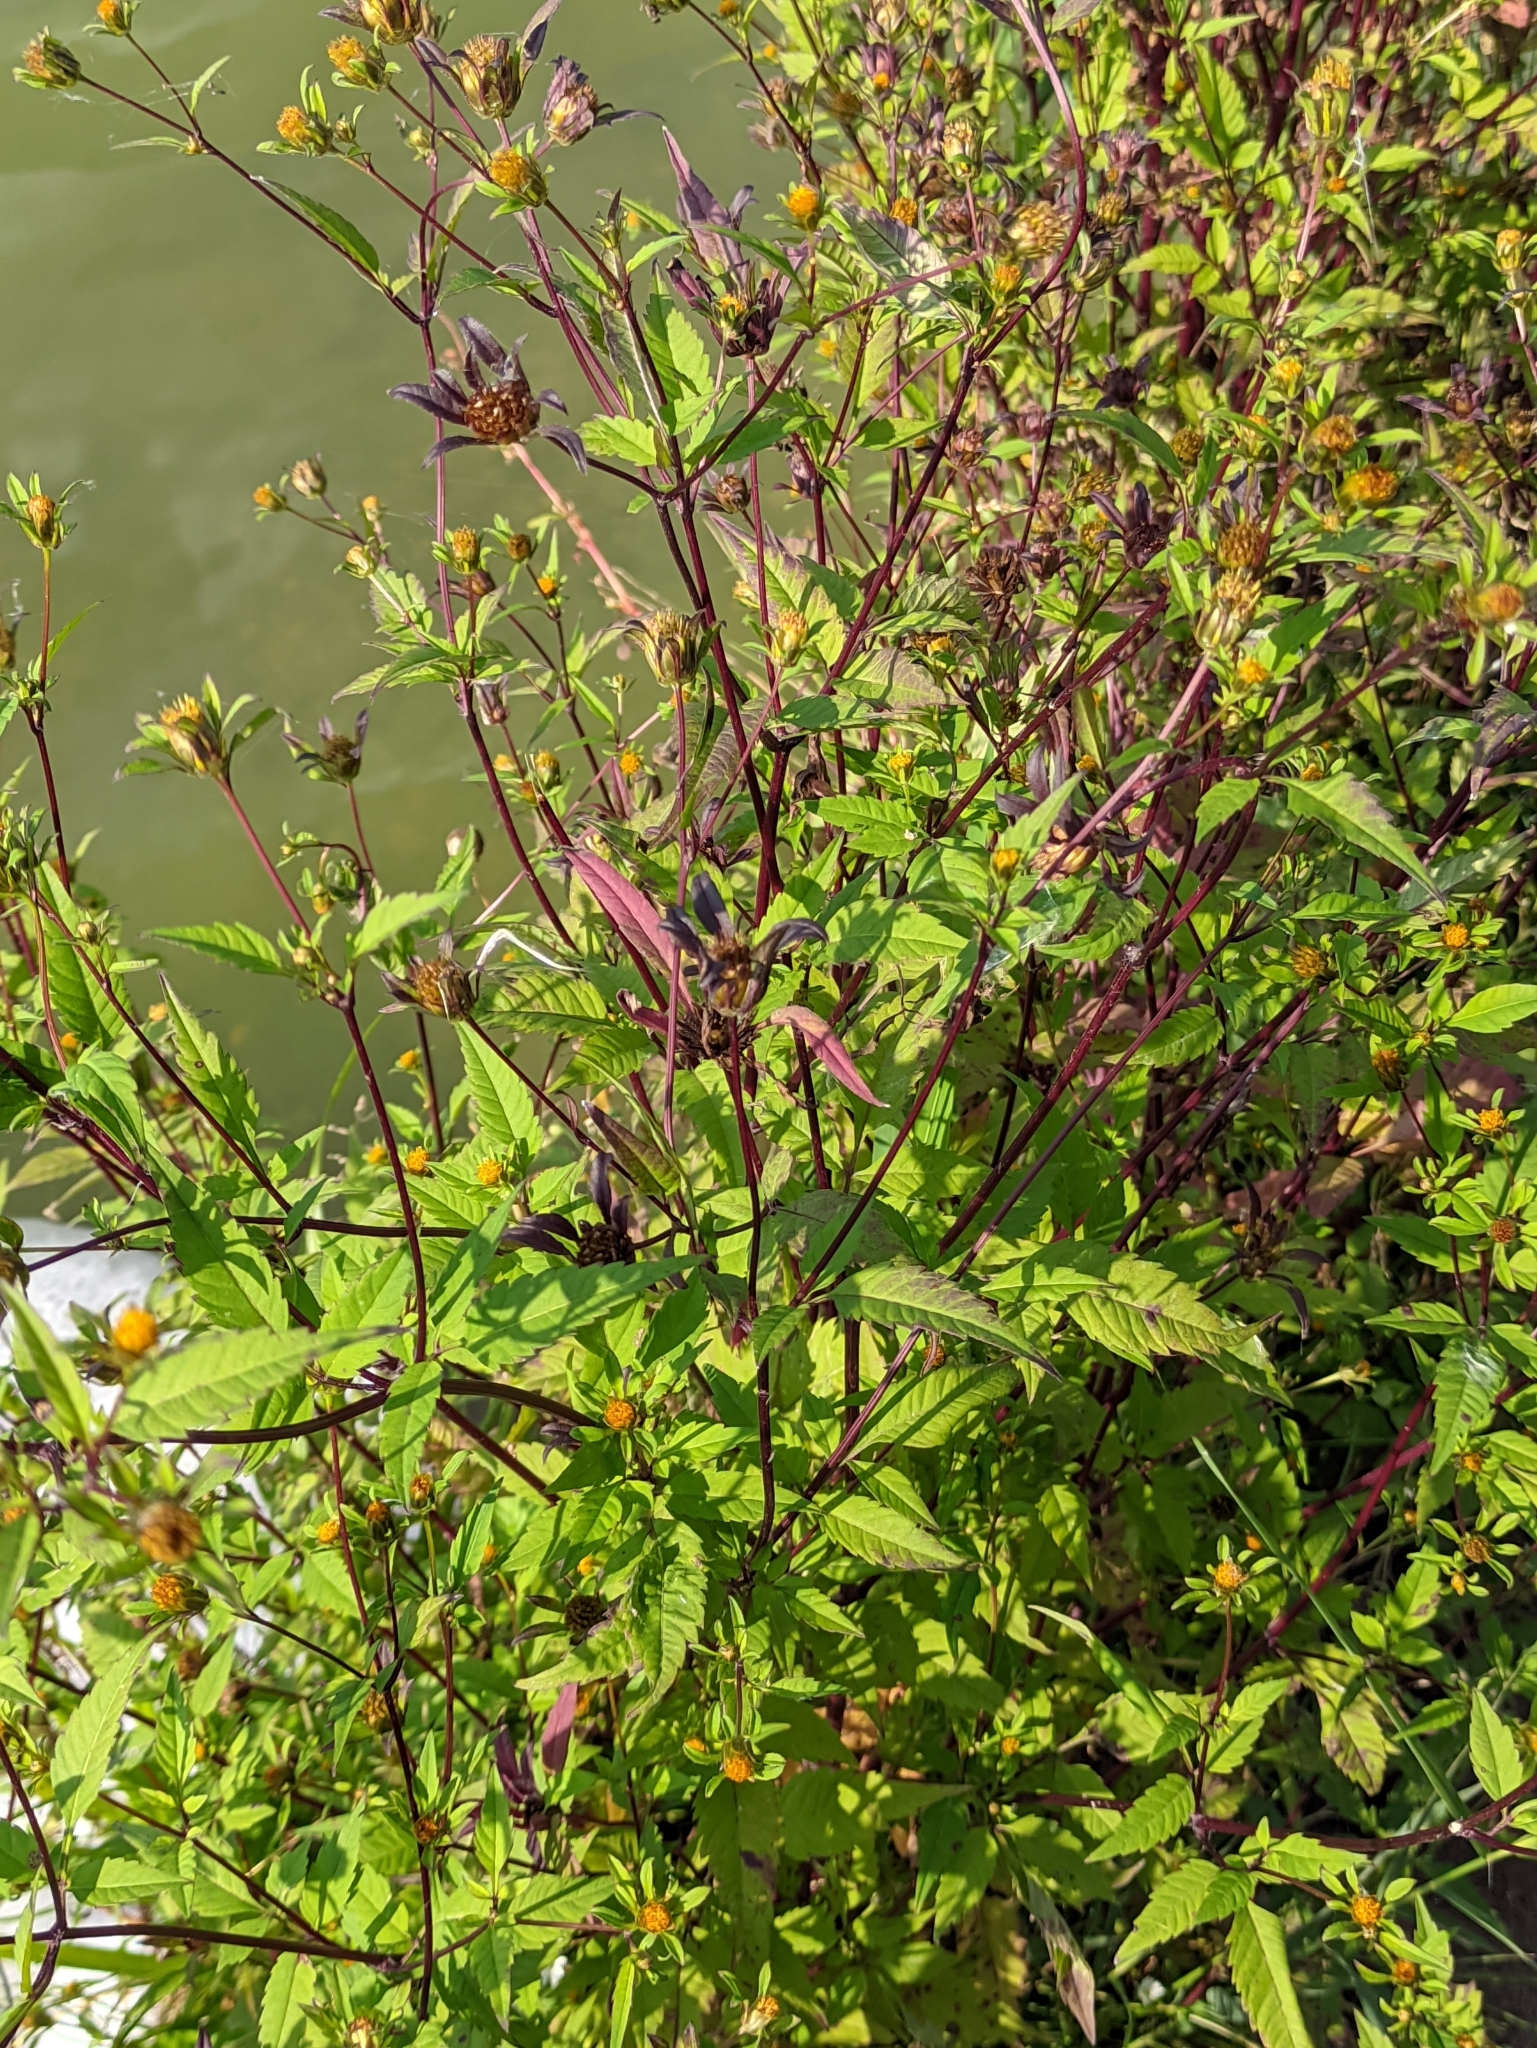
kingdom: Plantae
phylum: Tracheophyta
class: Magnoliopsida
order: Asterales
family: Asteraceae
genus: Bidens
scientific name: Bidens frondosa
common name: Beggarticks
